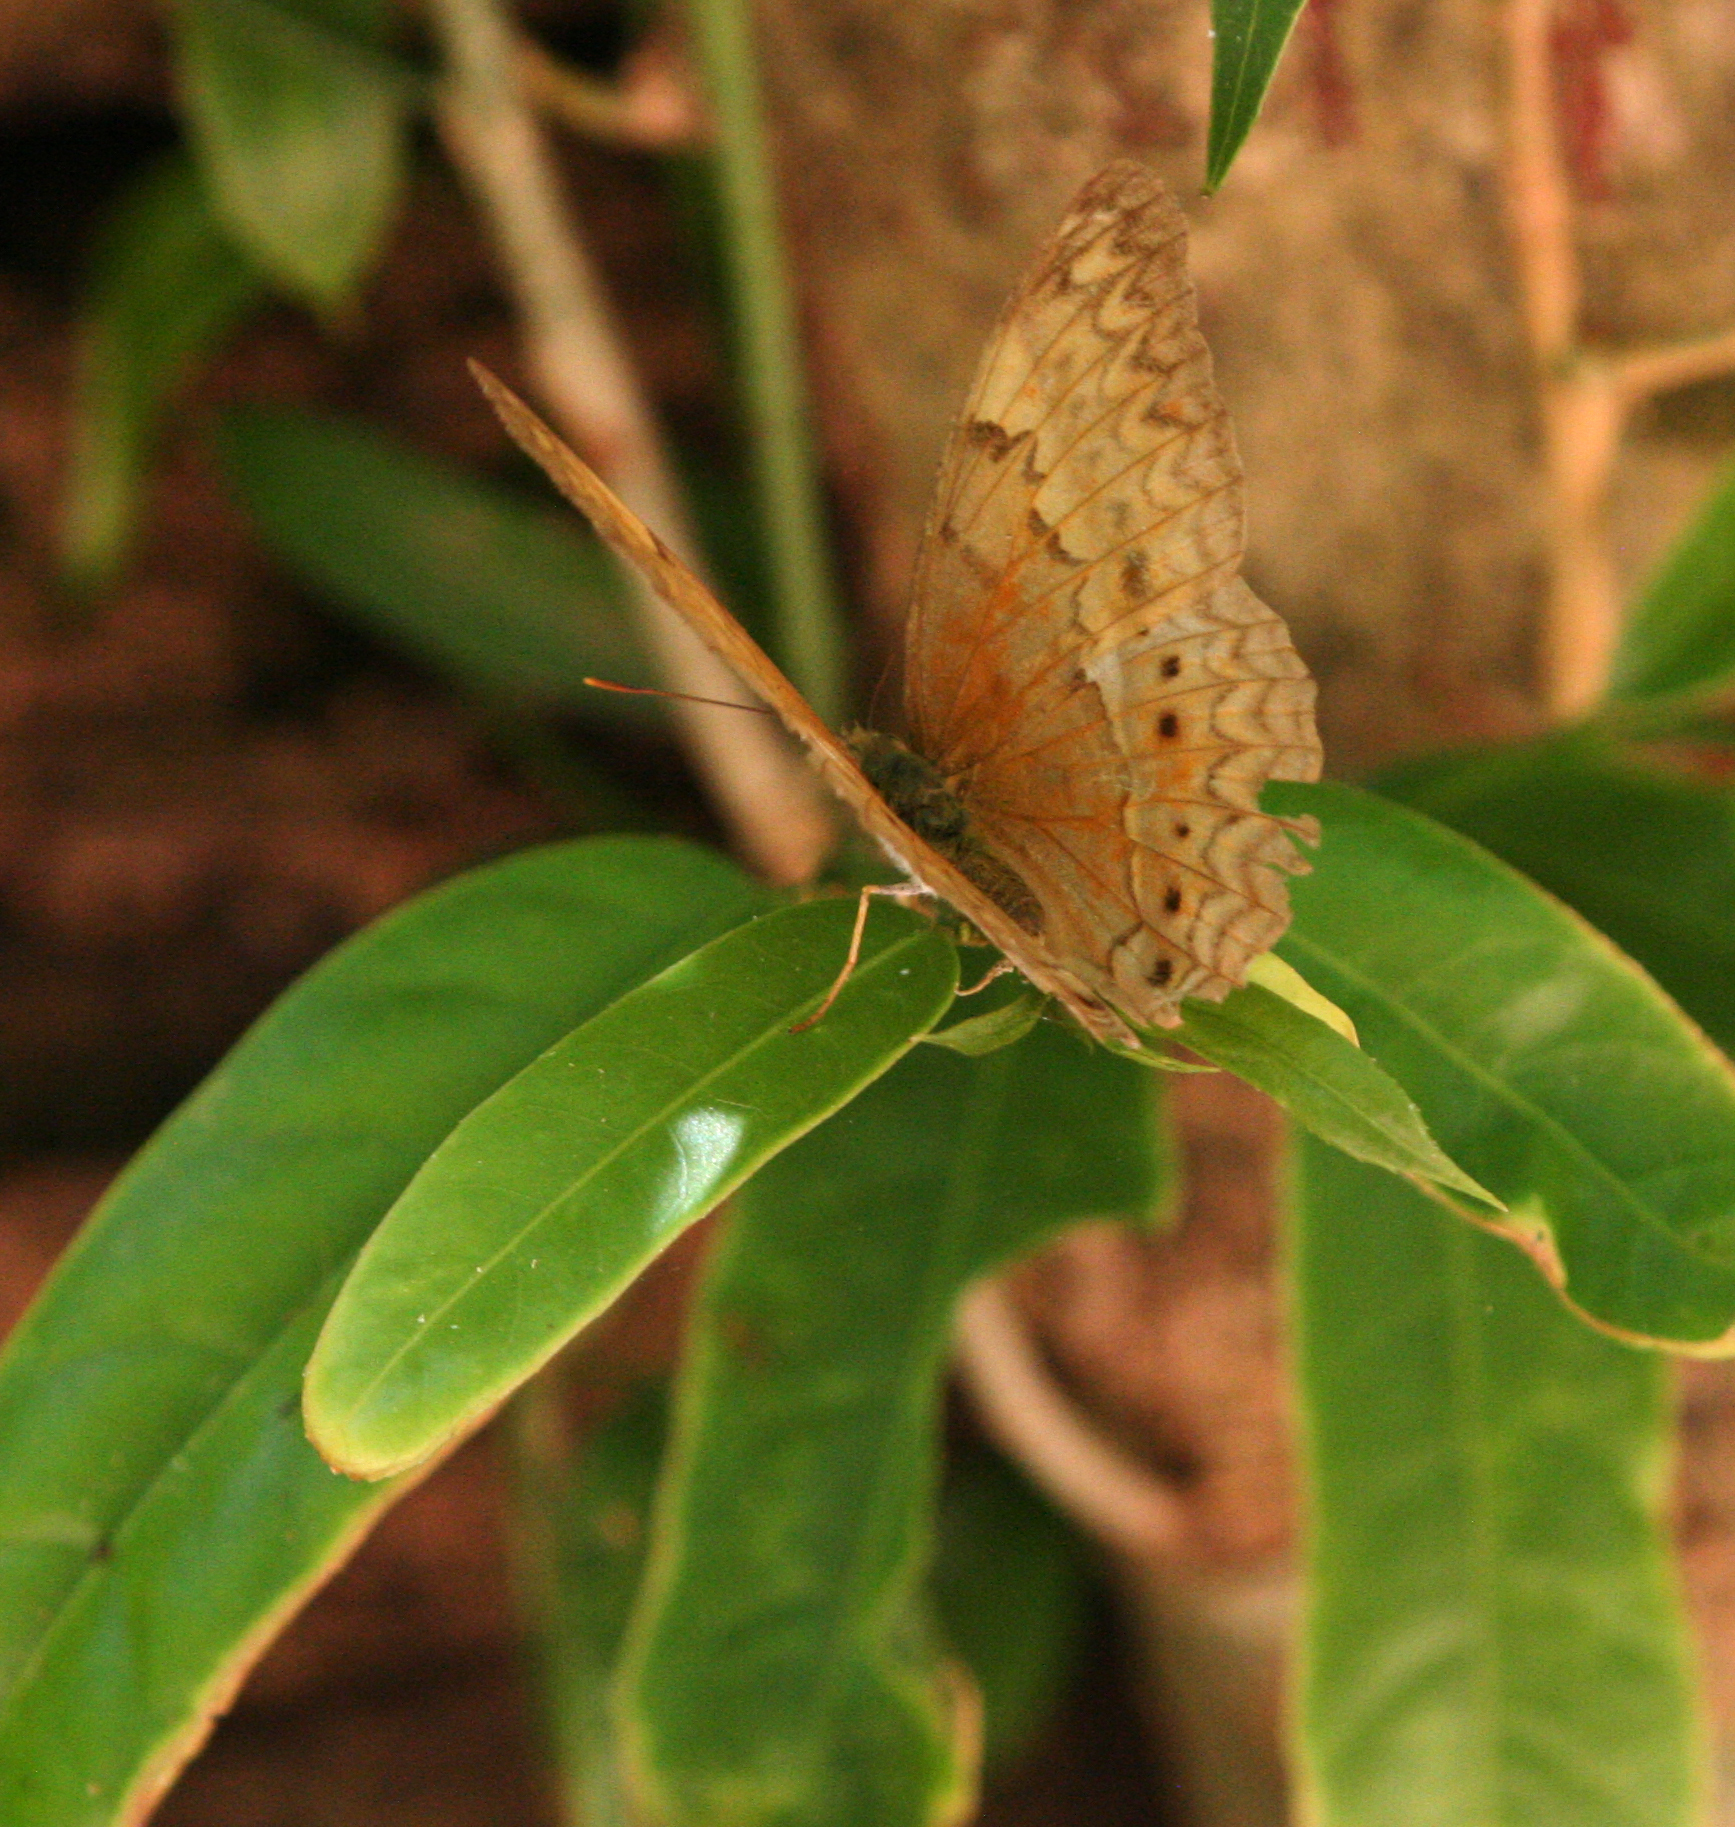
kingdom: Animalia
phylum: Arthropoda
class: Insecta
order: Lepidoptera
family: Nymphalidae
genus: Cirrochroa
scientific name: Cirrochroa tyche
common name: Common yeoman
